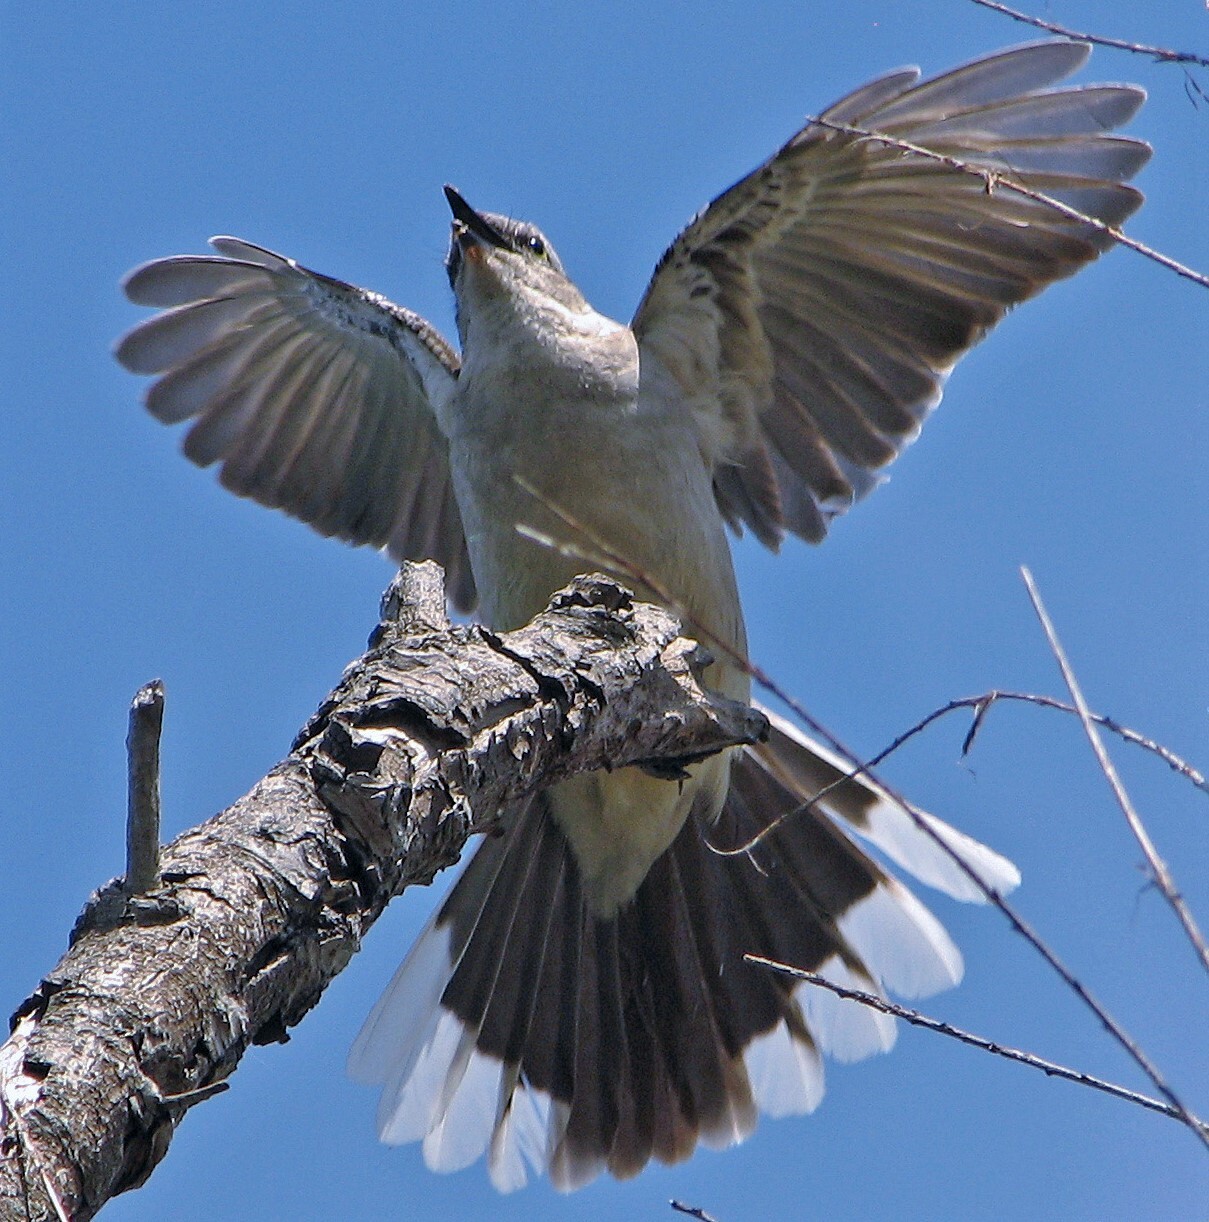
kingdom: Animalia
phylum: Chordata
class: Aves
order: Passeriformes
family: Mimidae
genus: Mimus
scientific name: Mimus saturninus
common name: Chalk-browed mockingbird
